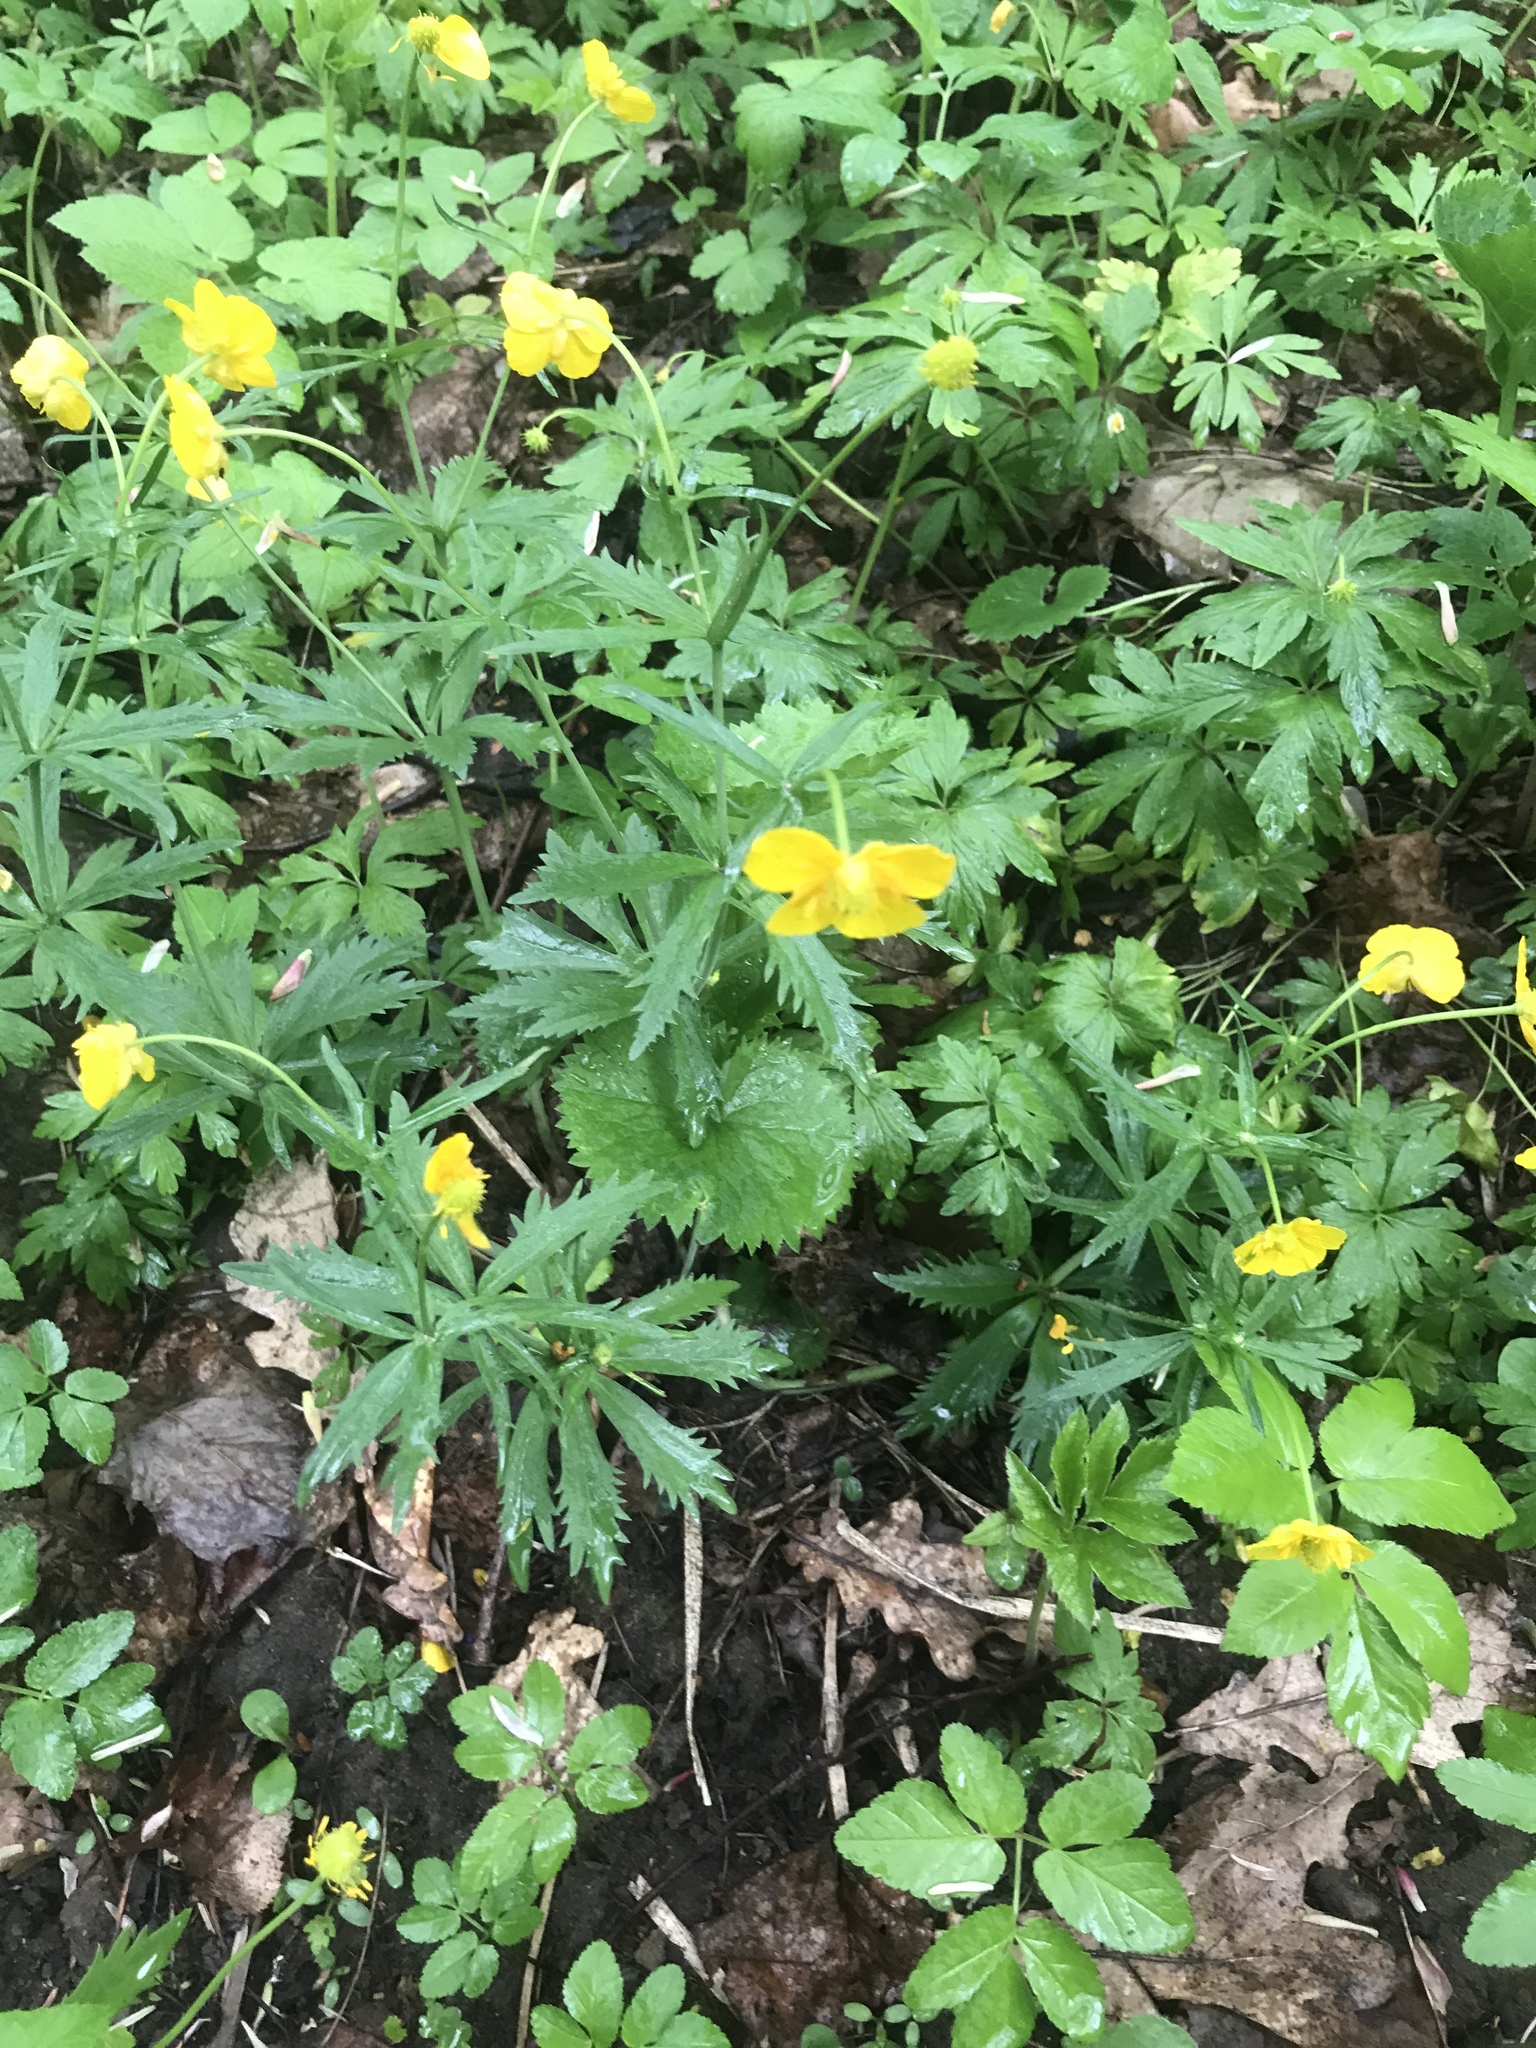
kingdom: Plantae
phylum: Tracheophyta
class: Magnoliopsida
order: Ranunculales
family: Ranunculaceae
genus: Ranunculus
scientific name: Ranunculus cassubicus
